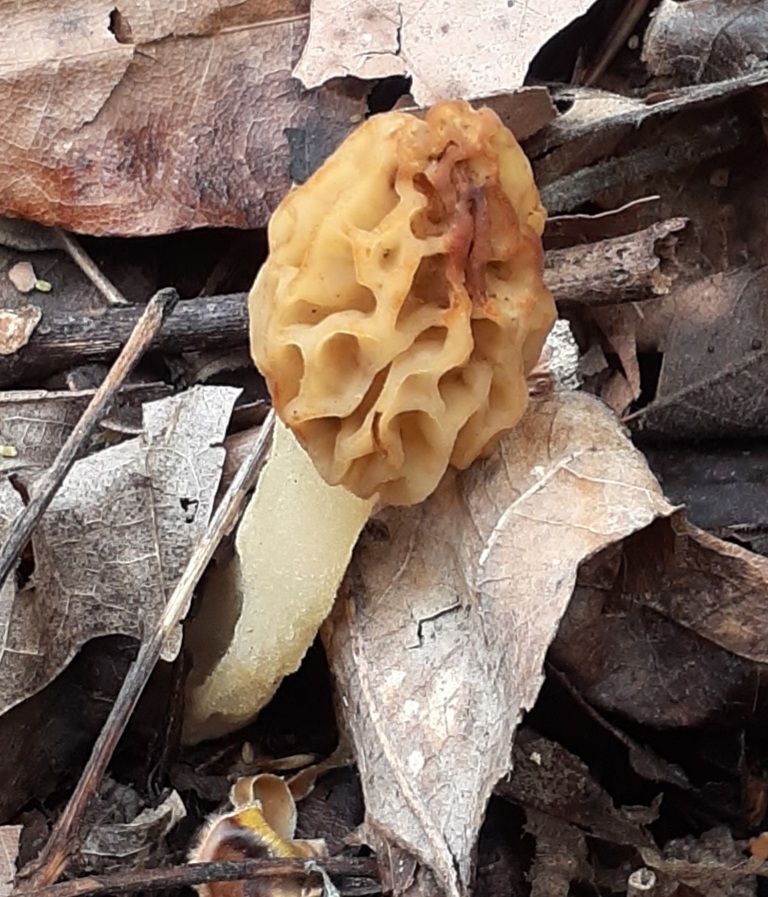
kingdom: Fungi
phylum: Ascomycota
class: Pezizomycetes
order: Pezizales
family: Morchellaceae
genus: Morchella
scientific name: Morchella diminutiva
